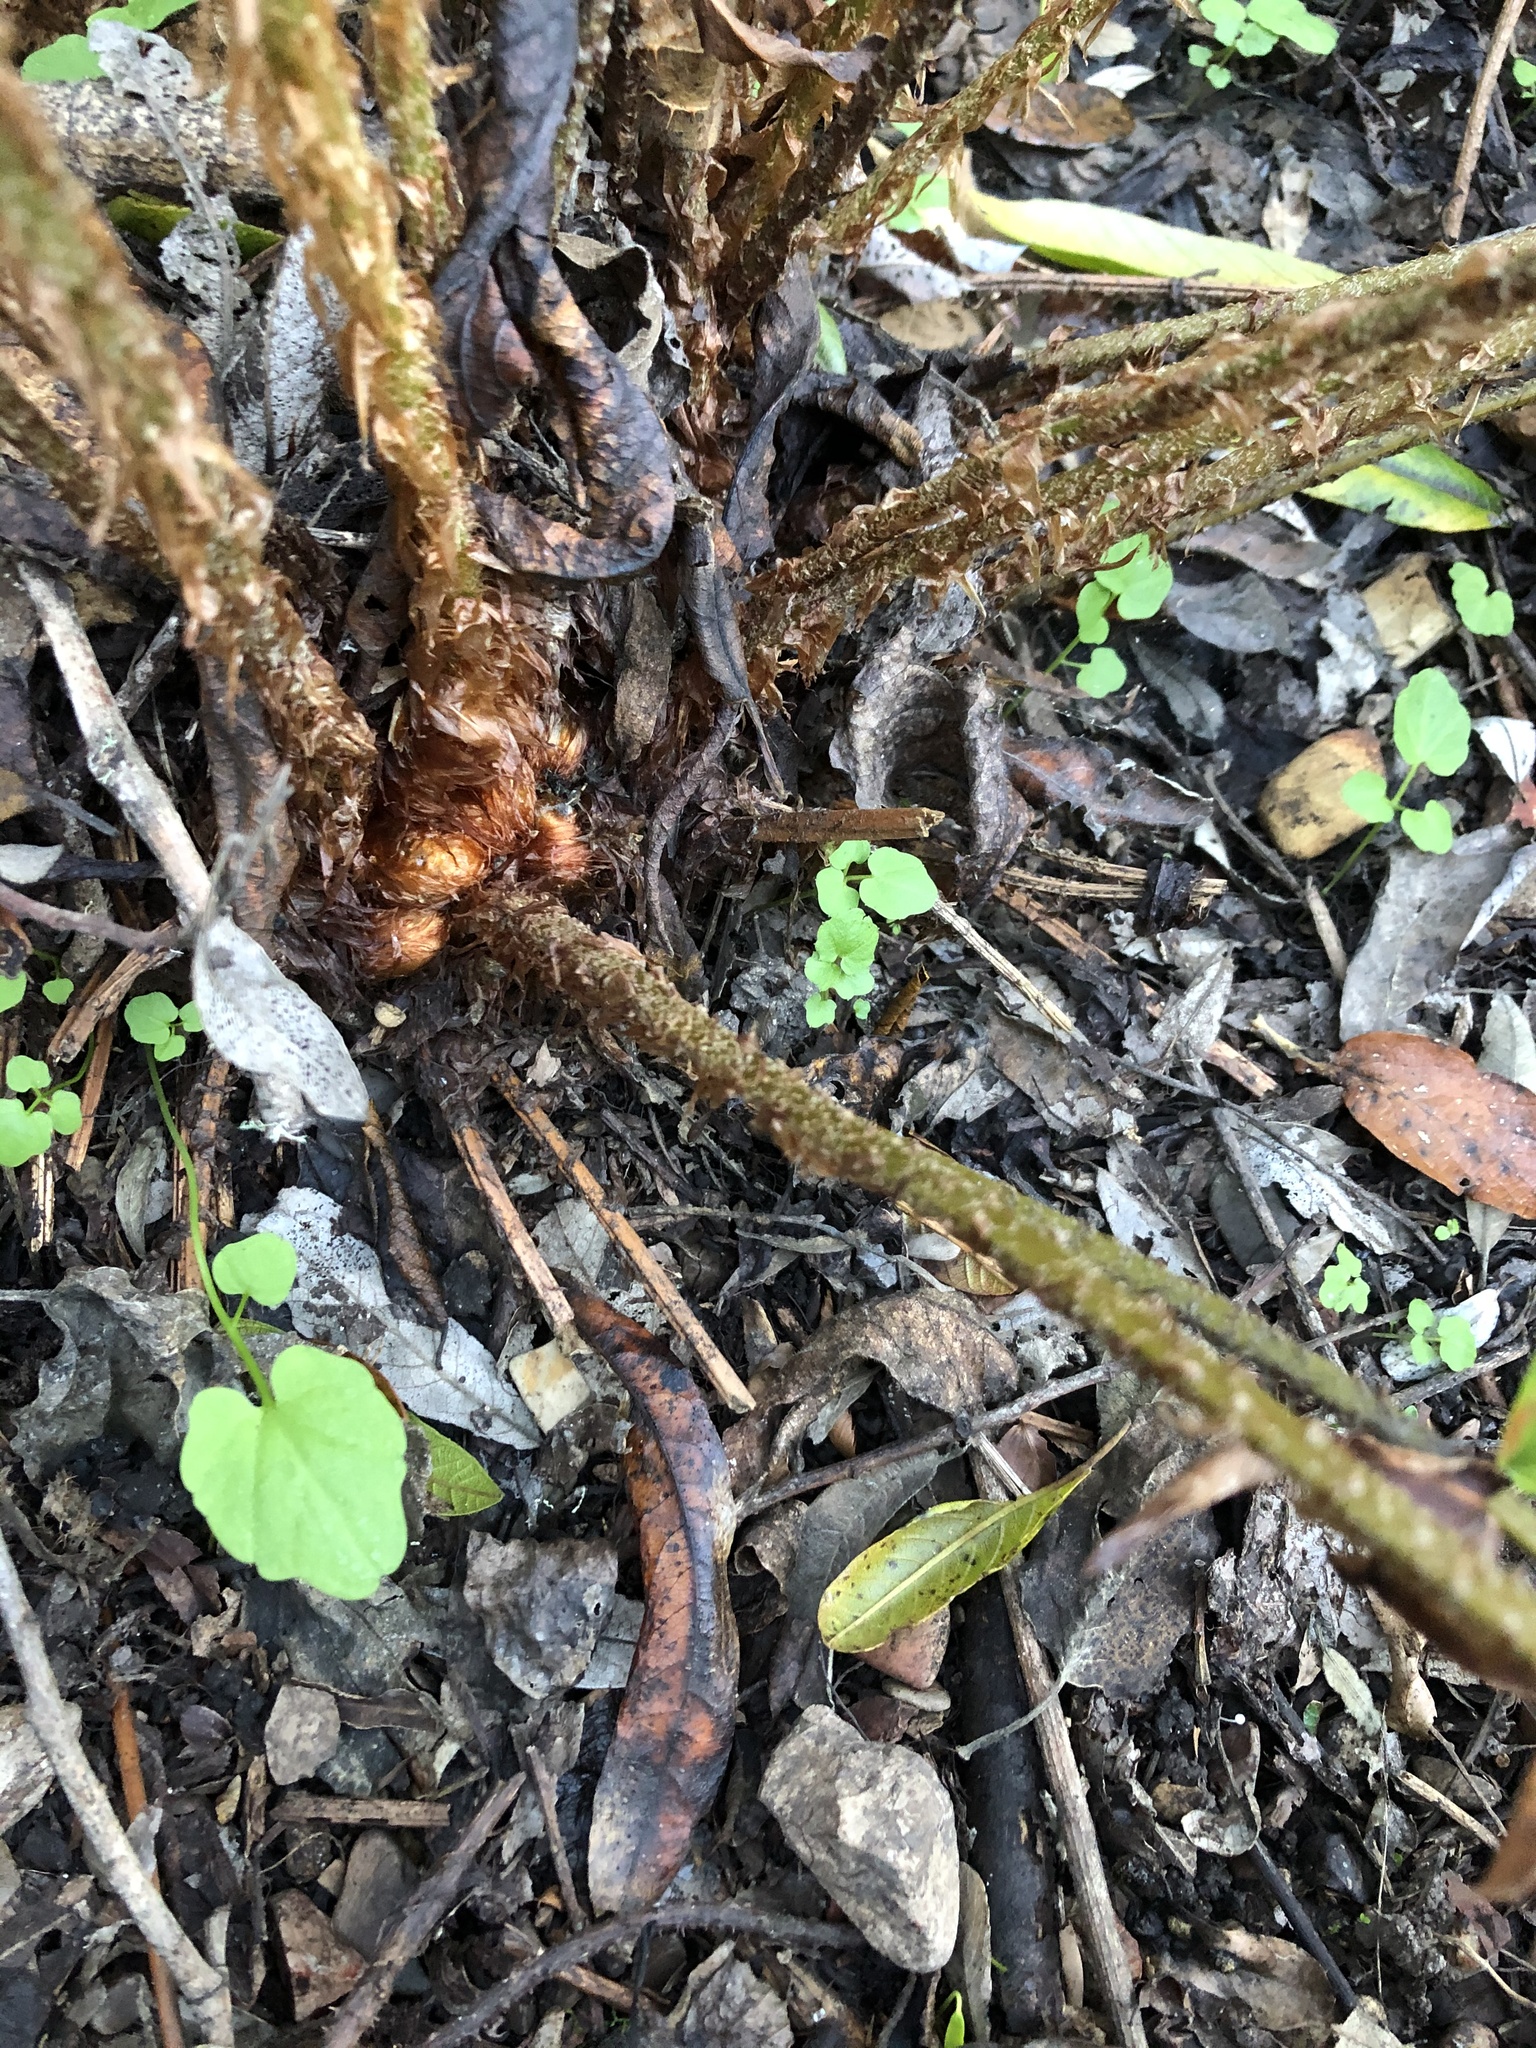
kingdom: Plantae
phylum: Tracheophyta
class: Polypodiopsida
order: Polypodiales
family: Dryopteridaceae
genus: Polystichum
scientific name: Polystichum munitum
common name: Western sword-fern
